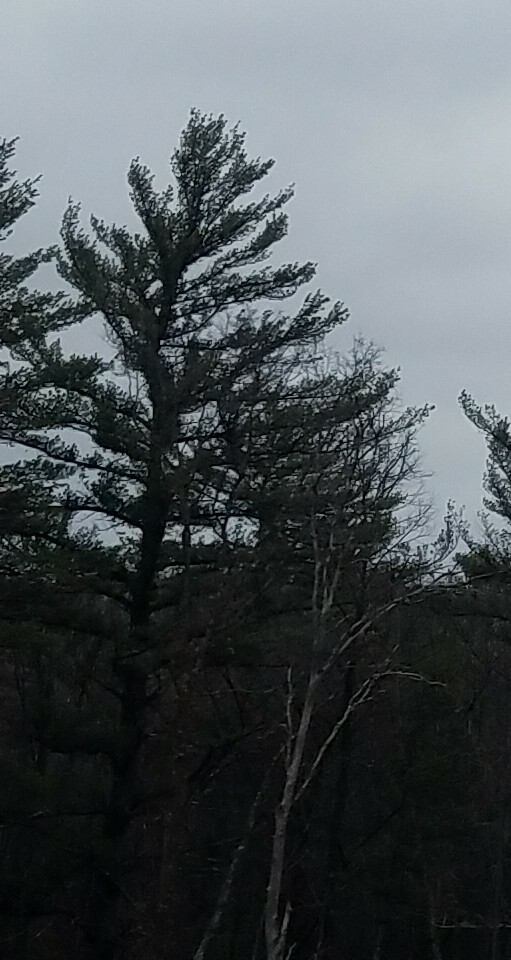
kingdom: Plantae
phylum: Tracheophyta
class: Pinopsida
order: Pinales
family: Pinaceae
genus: Pinus
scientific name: Pinus strobus
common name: Weymouth pine
